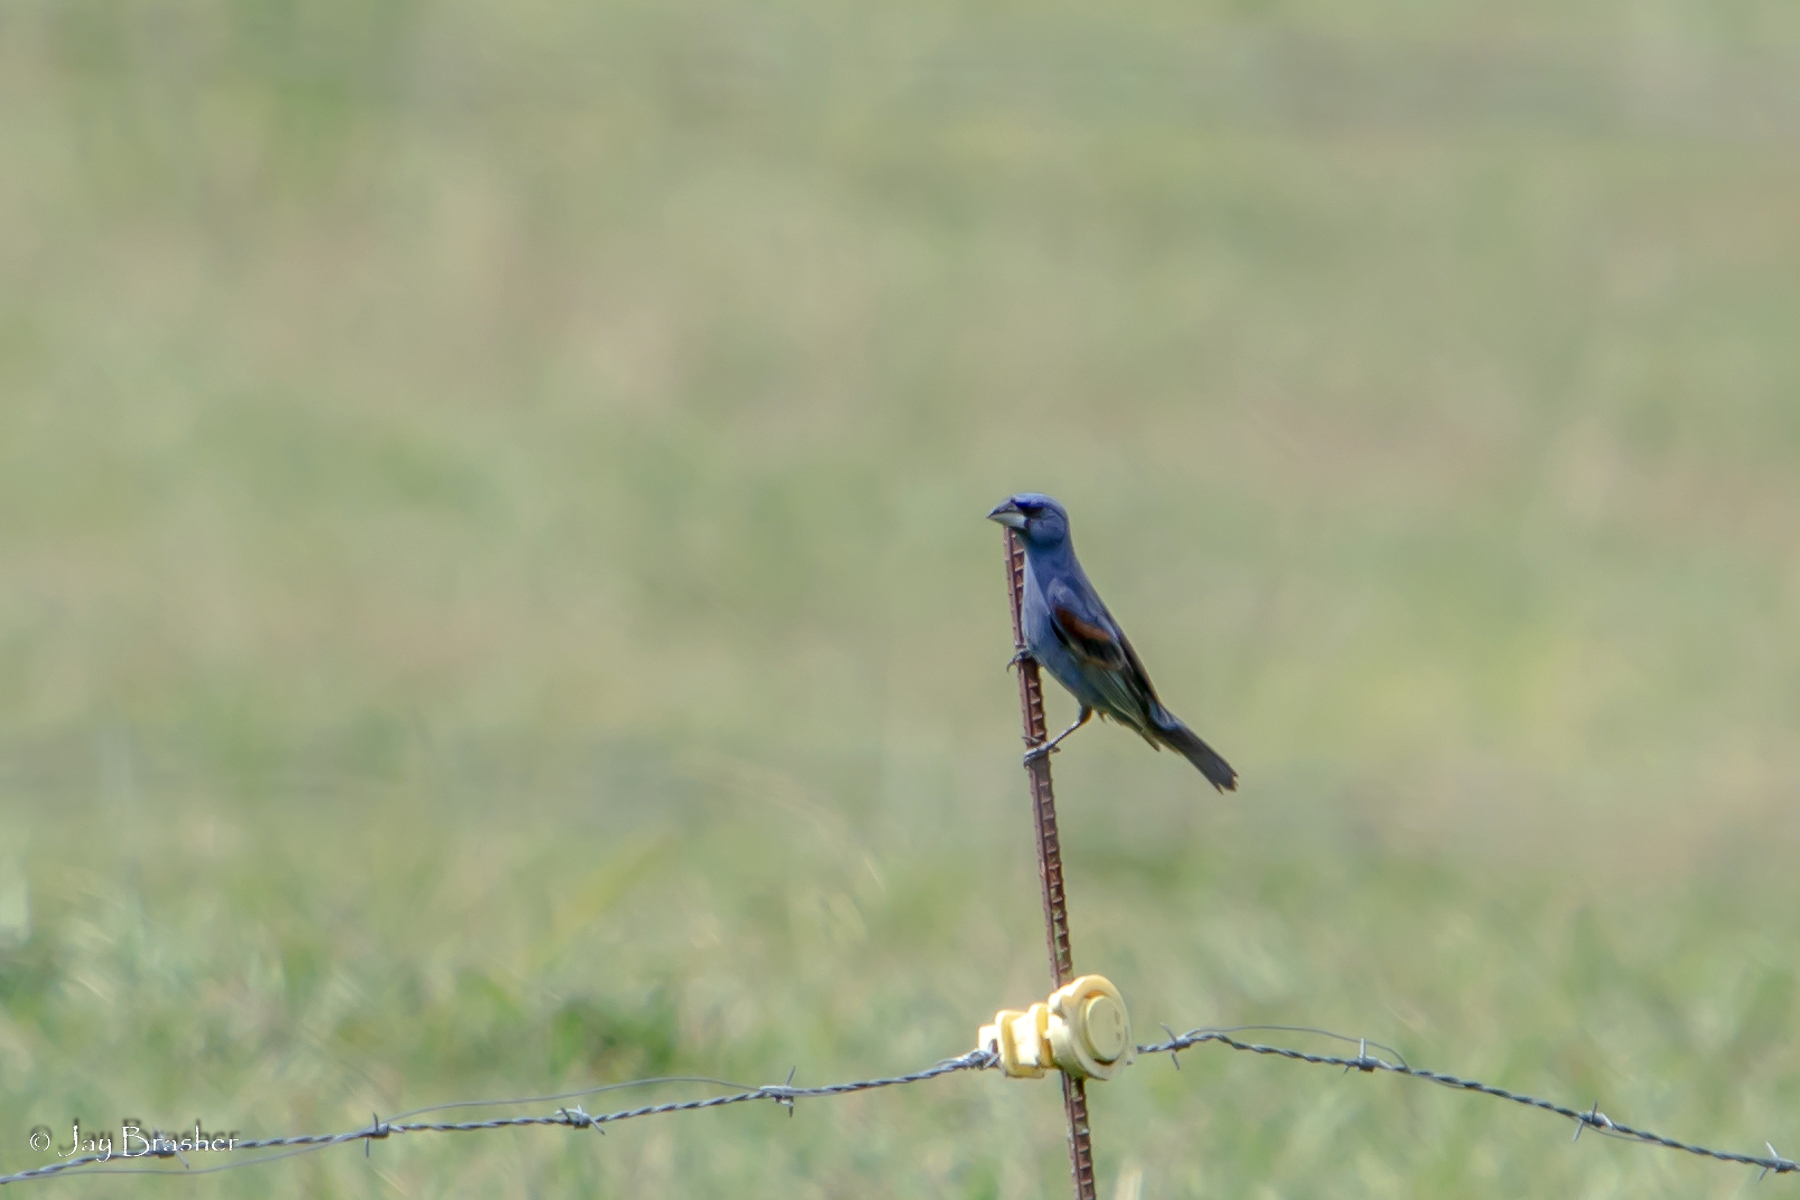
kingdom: Animalia
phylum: Chordata
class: Aves
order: Passeriformes
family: Cardinalidae
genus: Passerina
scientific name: Passerina caerulea
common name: Blue grosbeak
